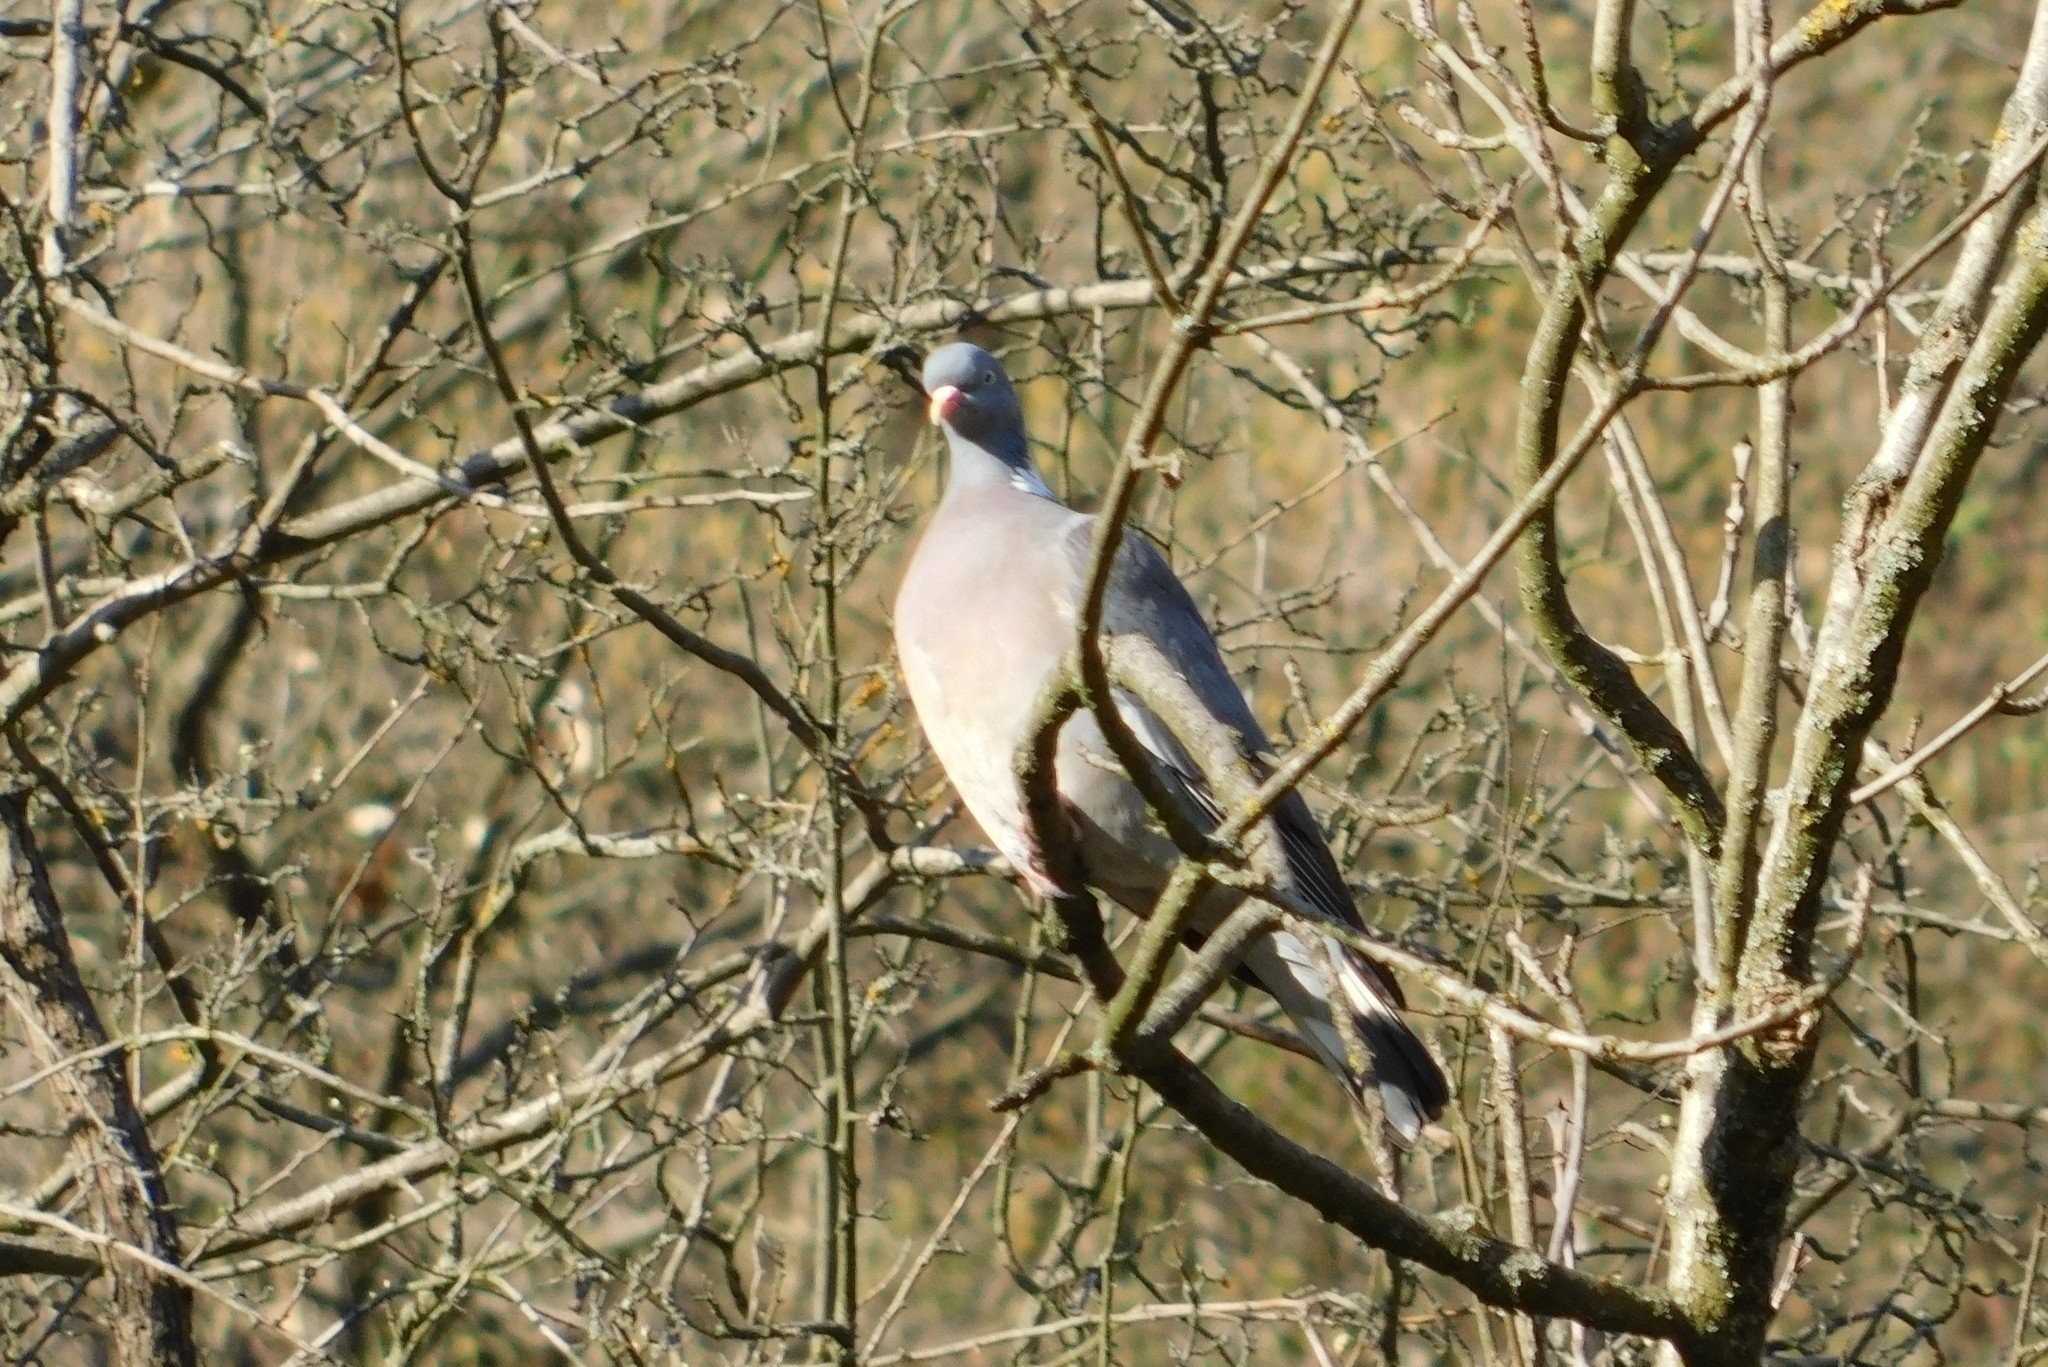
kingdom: Animalia
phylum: Chordata
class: Aves
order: Columbiformes
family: Columbidae
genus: Columba
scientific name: Columba palumbus
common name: Common wood pigeon
